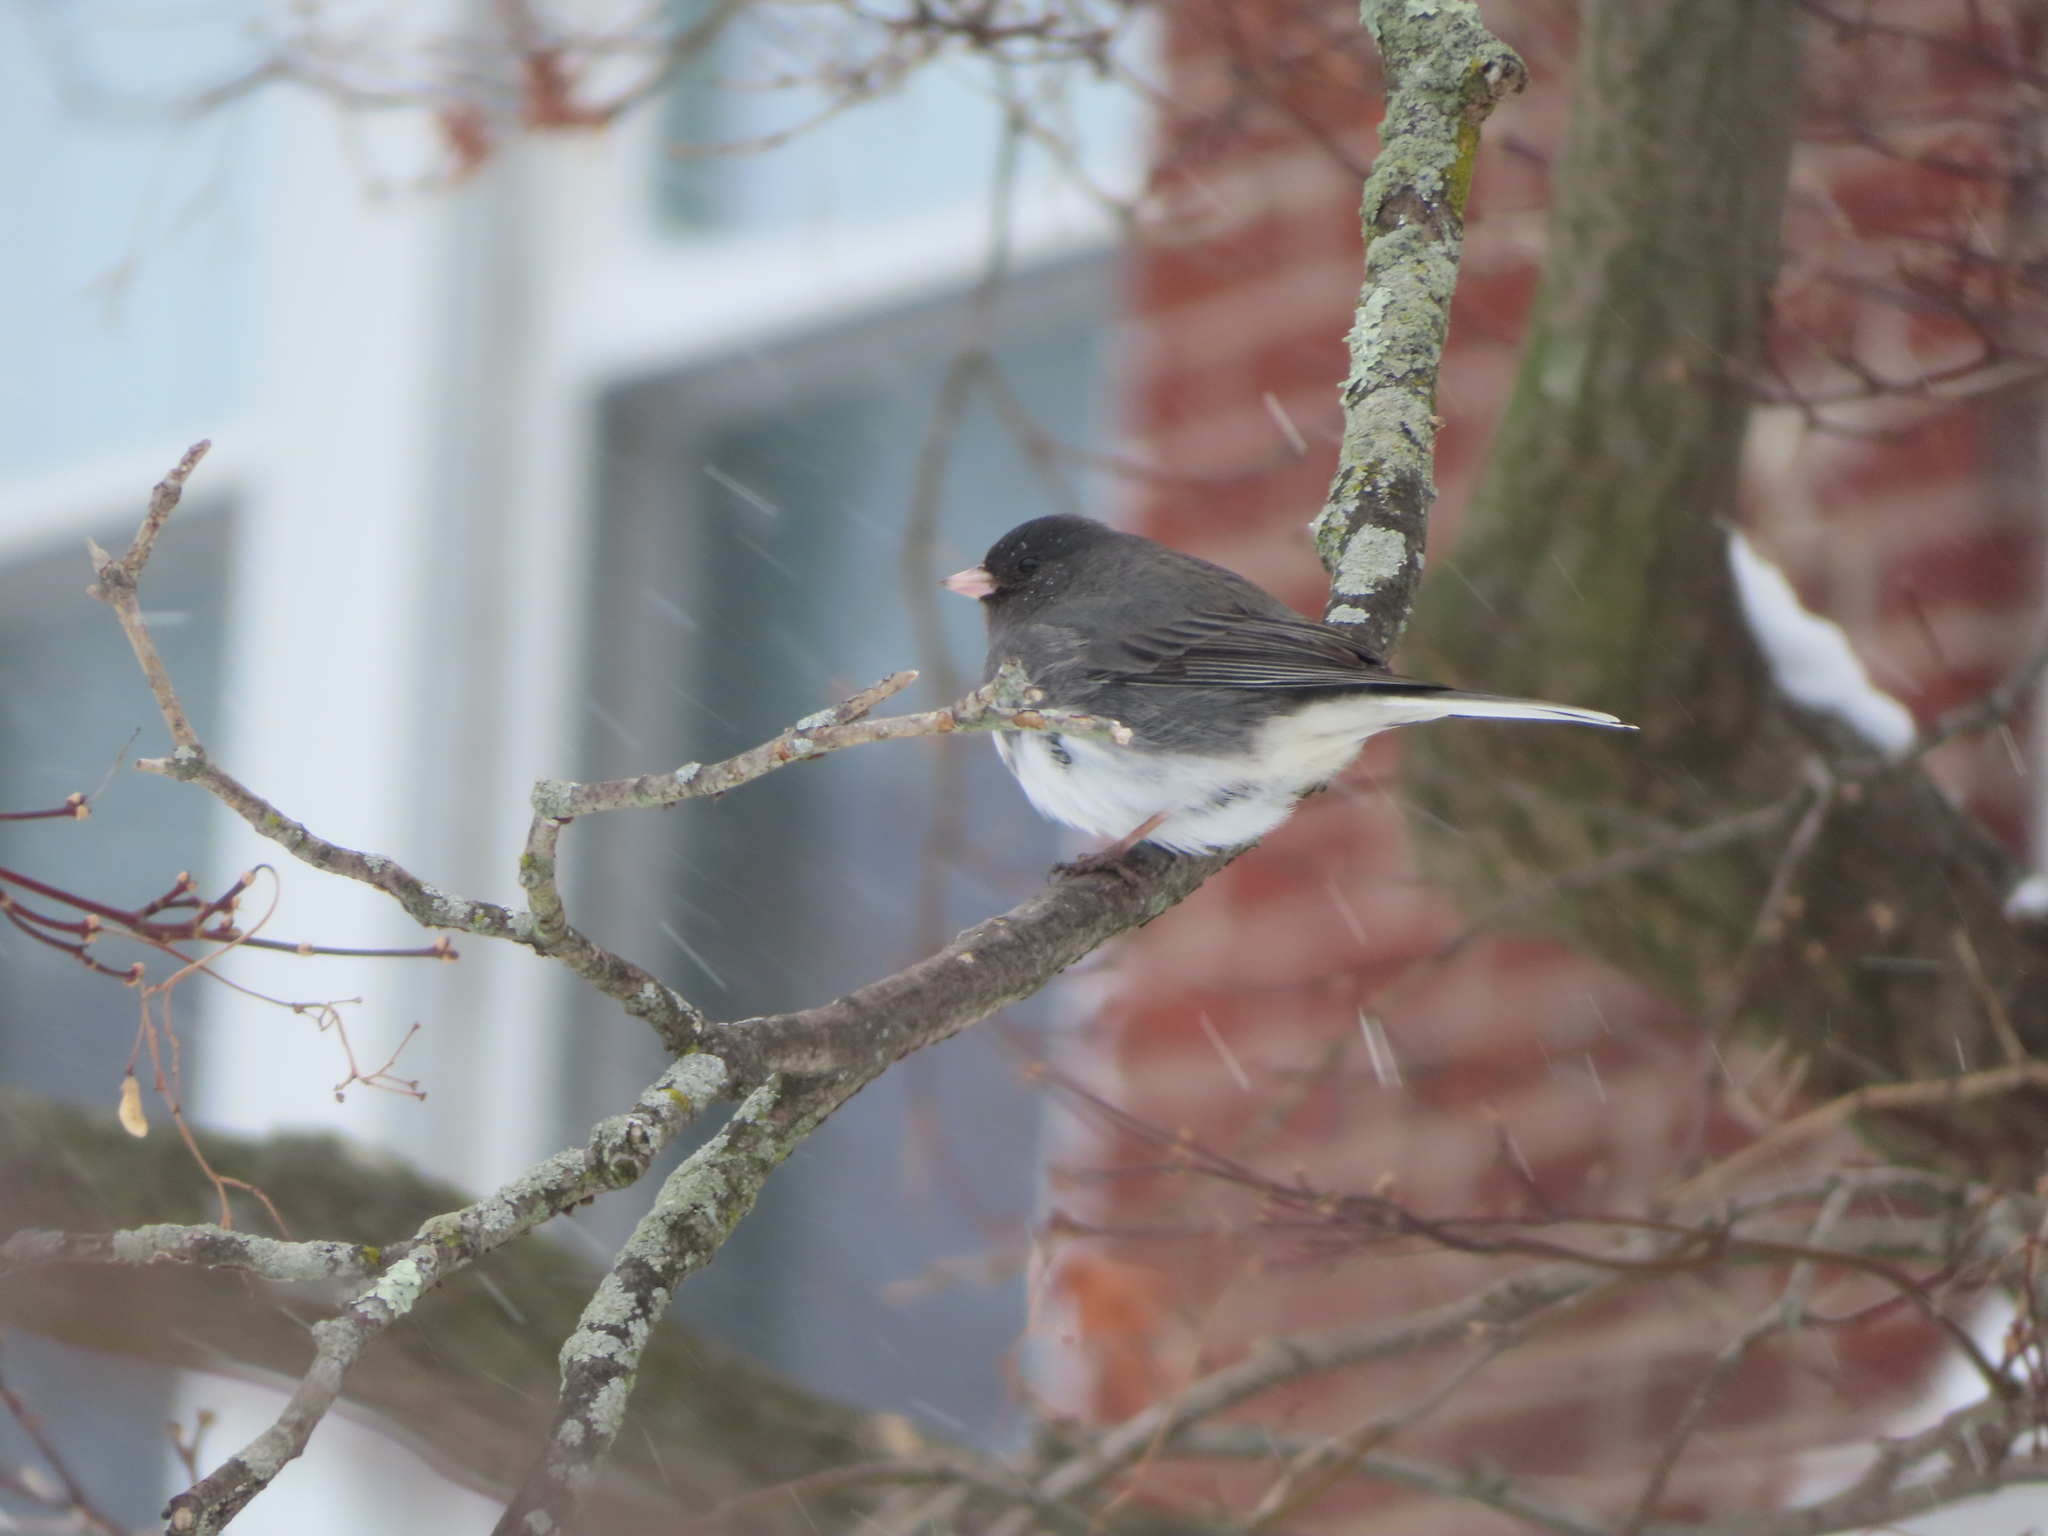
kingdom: Animalia
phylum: Chordata
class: Aves
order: Passeriformes
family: Passerellidae
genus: Junco
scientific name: Junco hyemalis
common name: Dark-eyed junco
